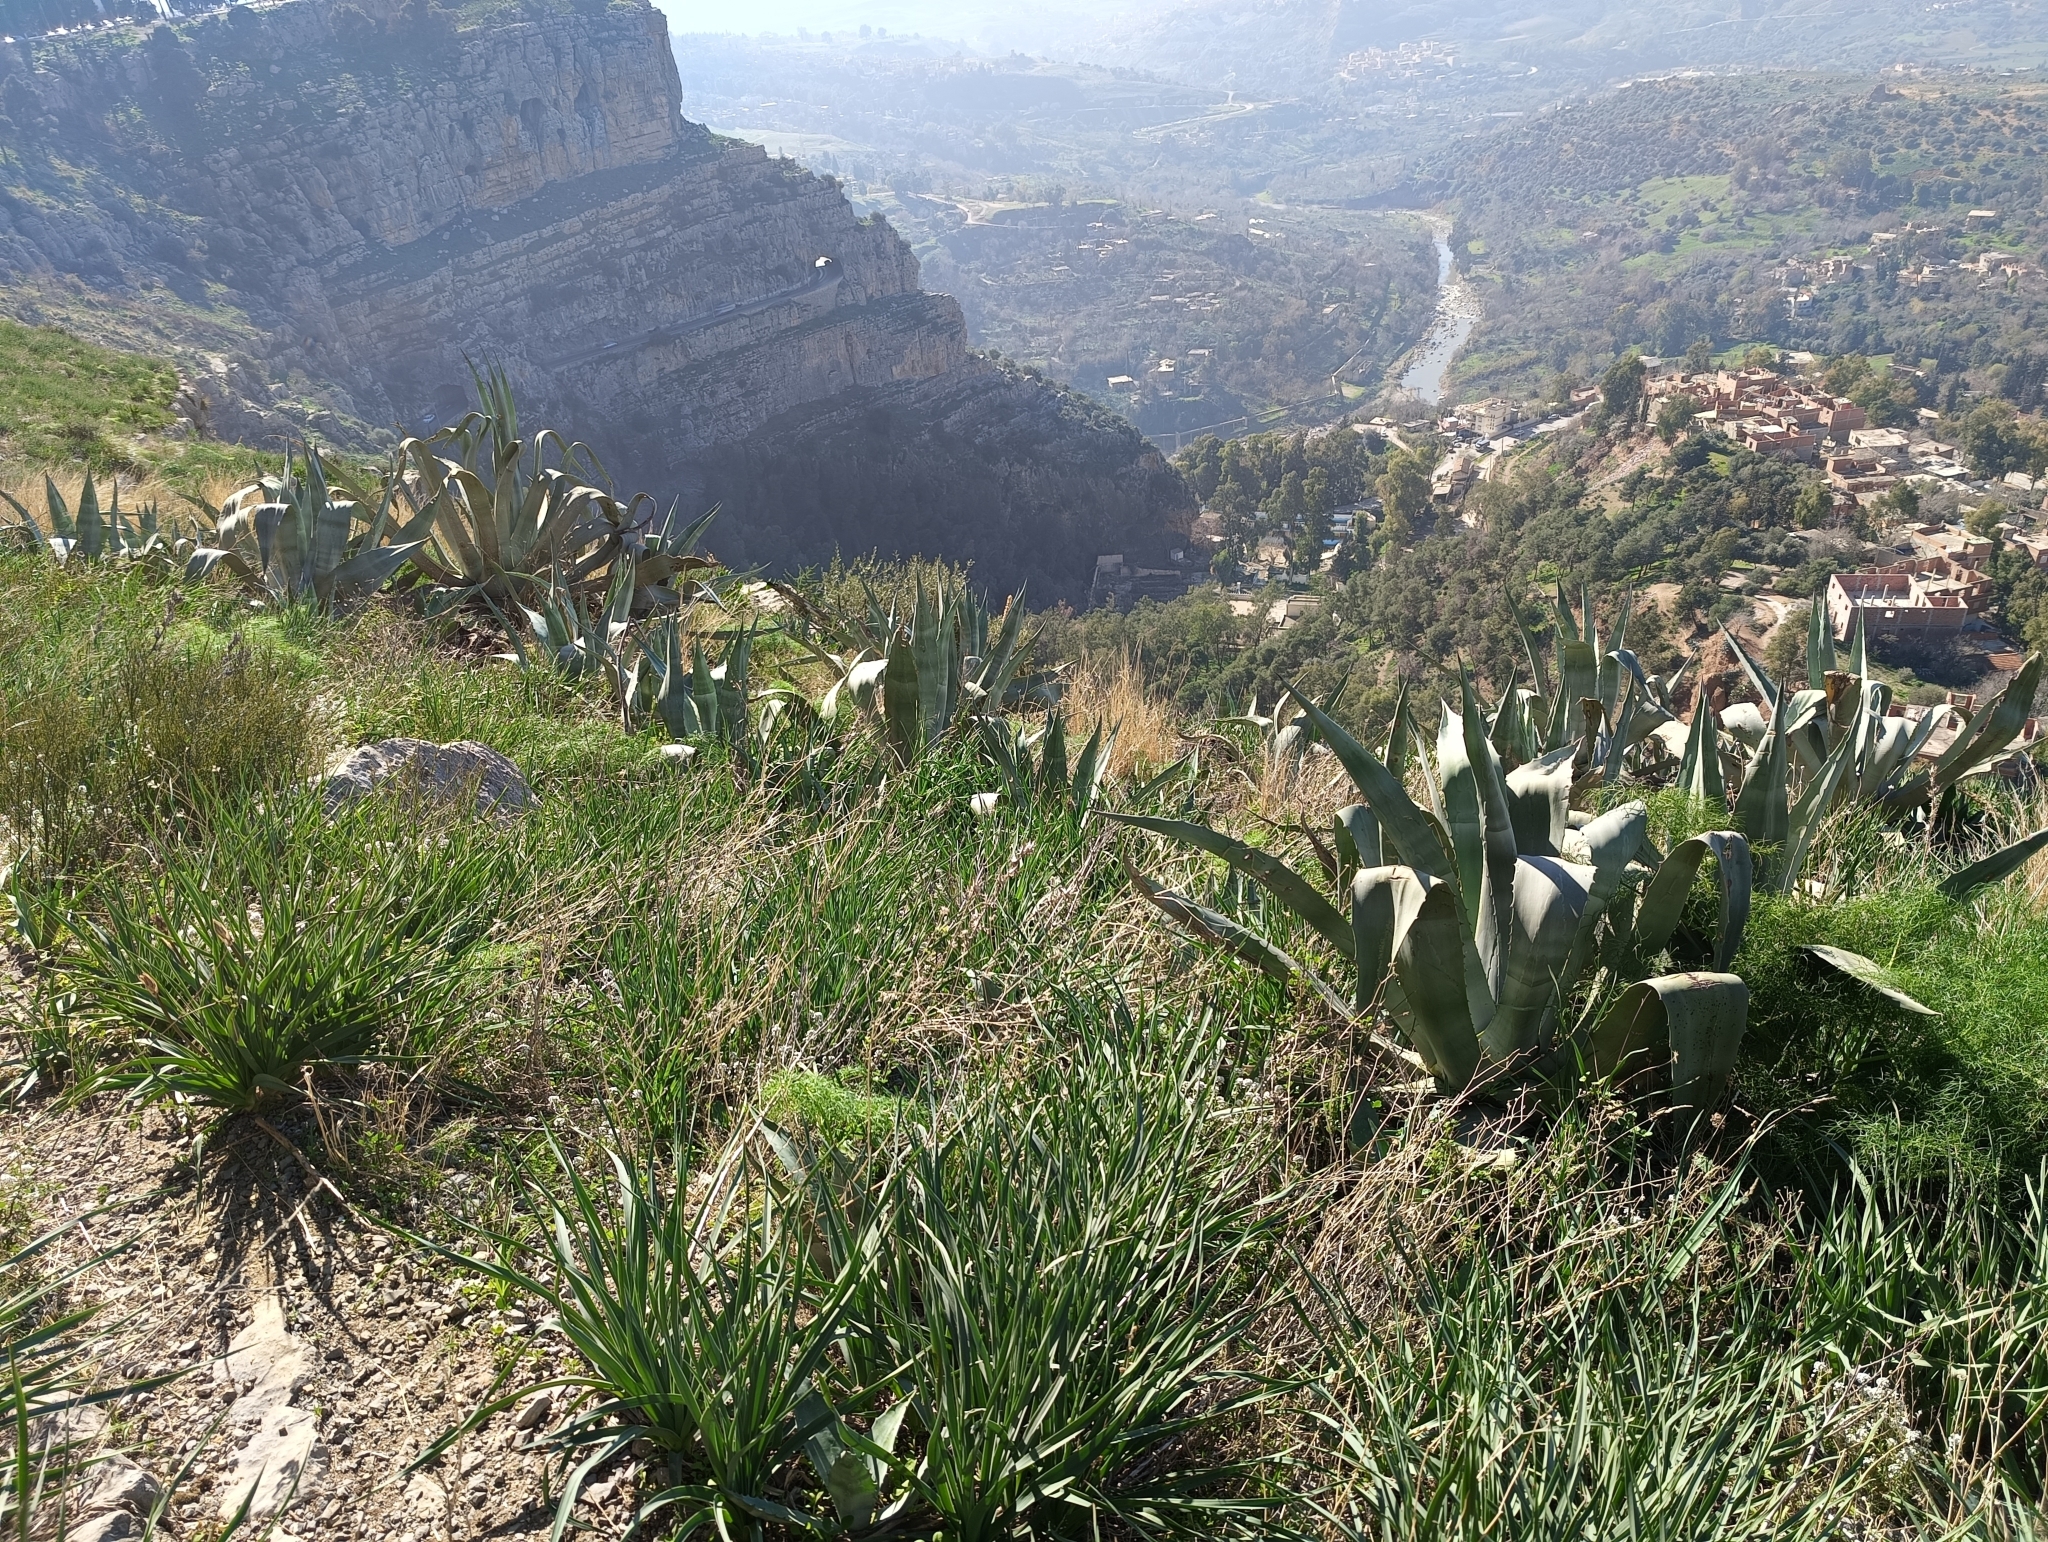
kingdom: Plantae
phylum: Tracheophyta
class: Liliopsida
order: Asparagales
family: Asparagaceae
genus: Agave
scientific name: Agave americana
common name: Centuryplant
